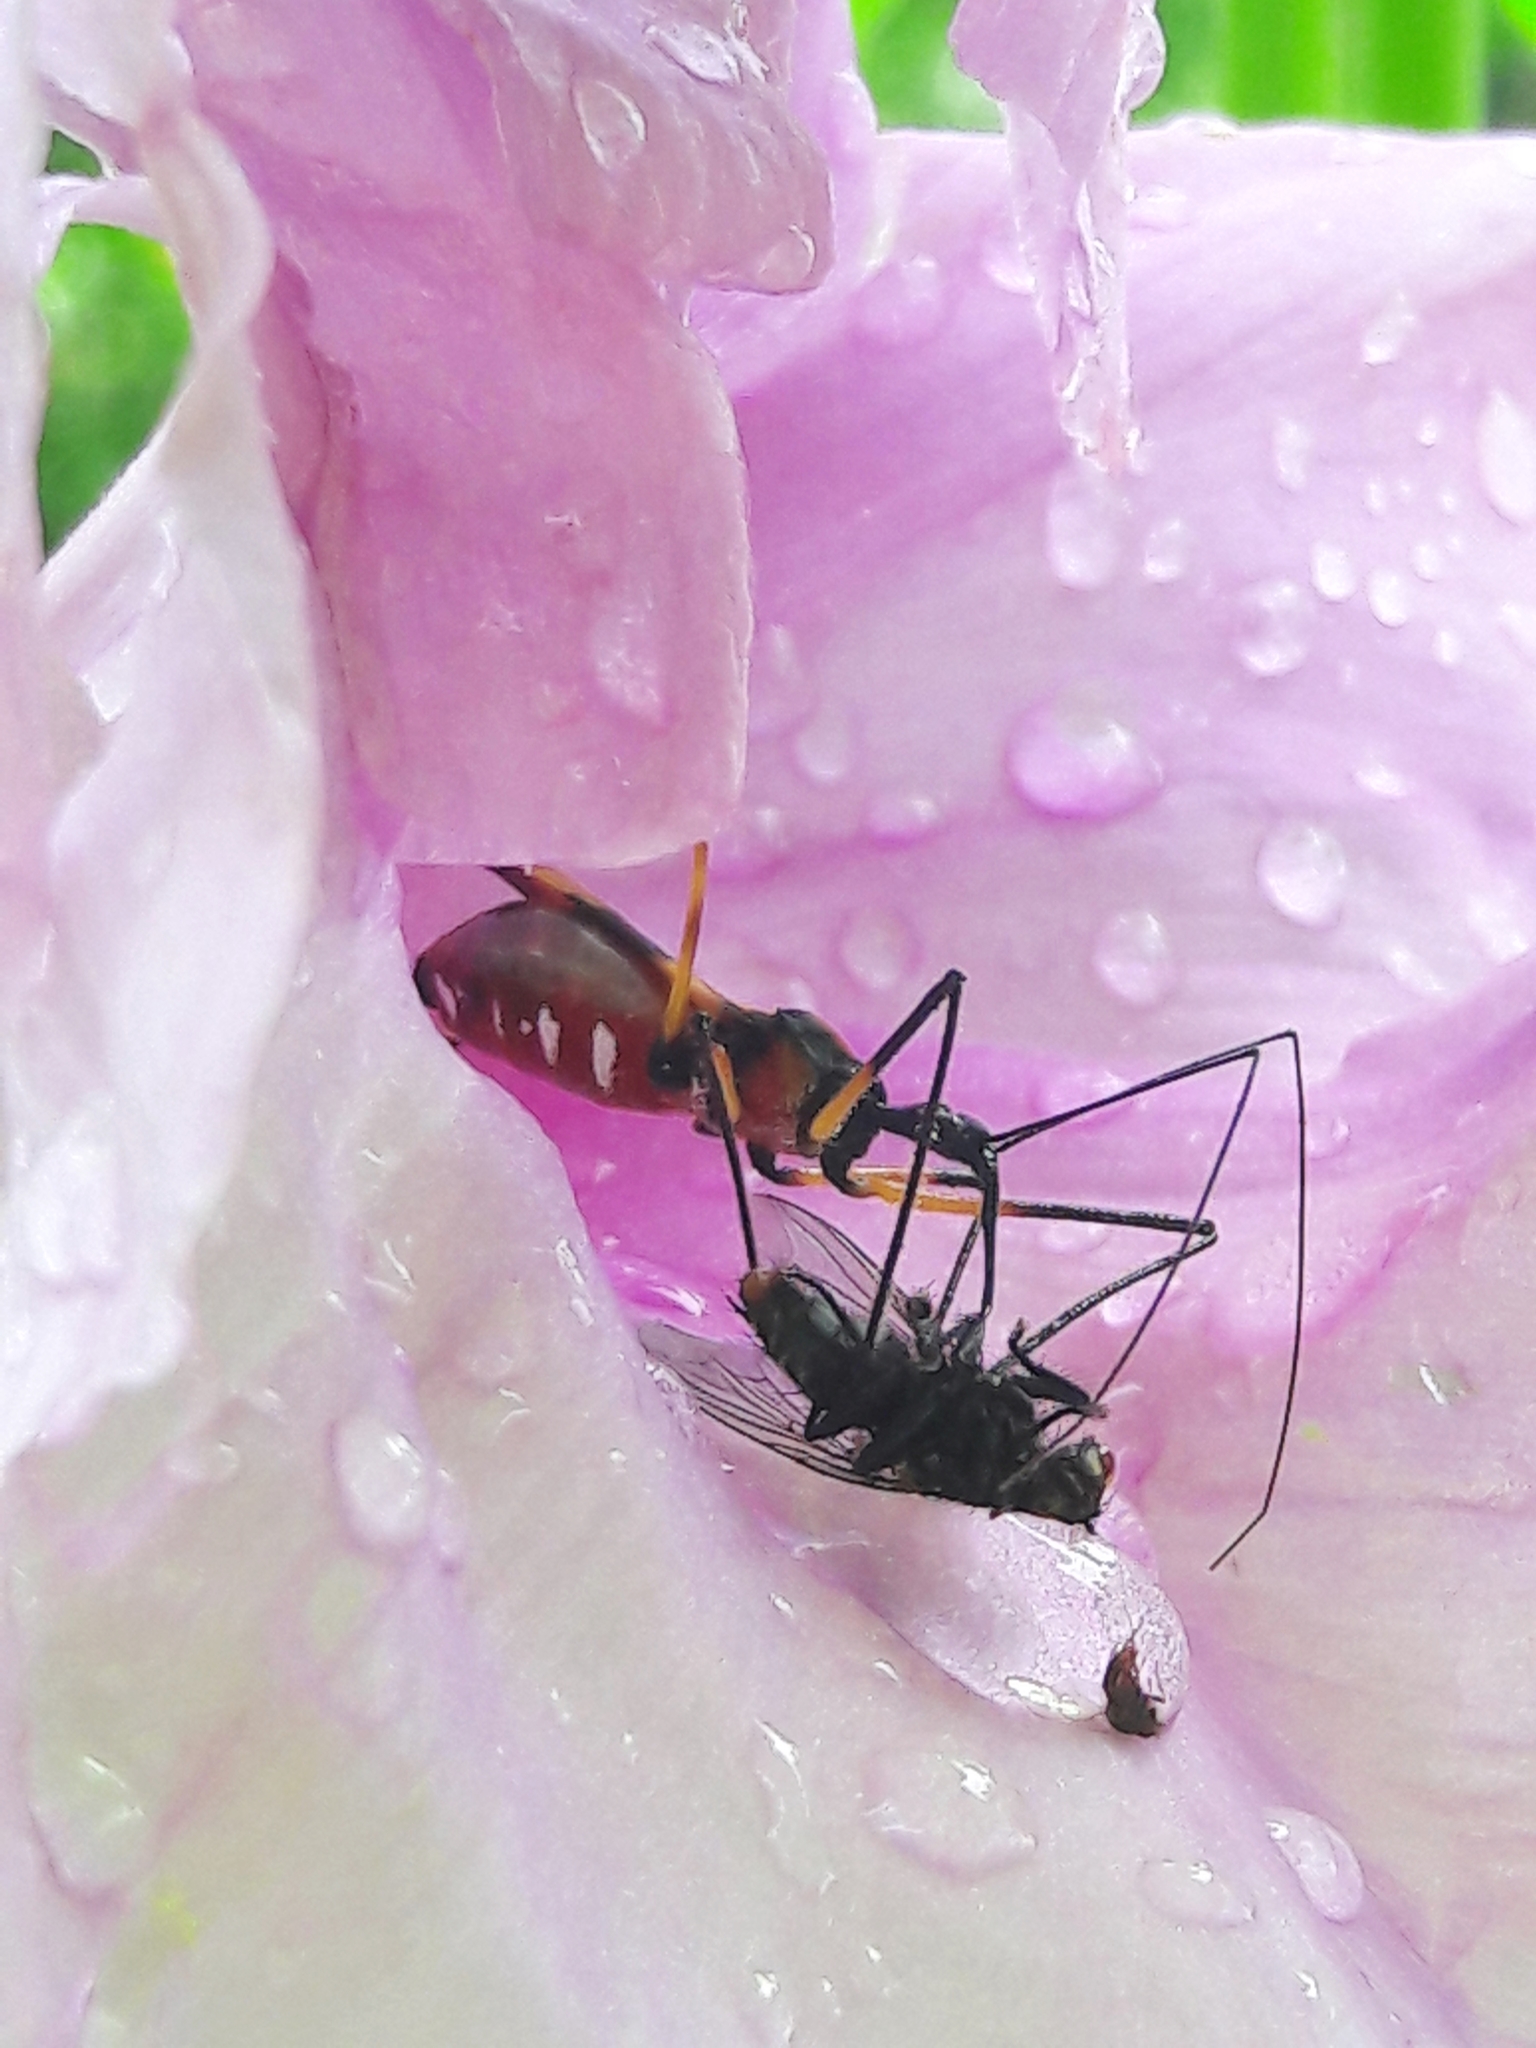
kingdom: Animalia
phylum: Arthropoda
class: Insecta
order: Hemiptera
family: Reduviidae
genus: Zelus
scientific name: Zelus errans
